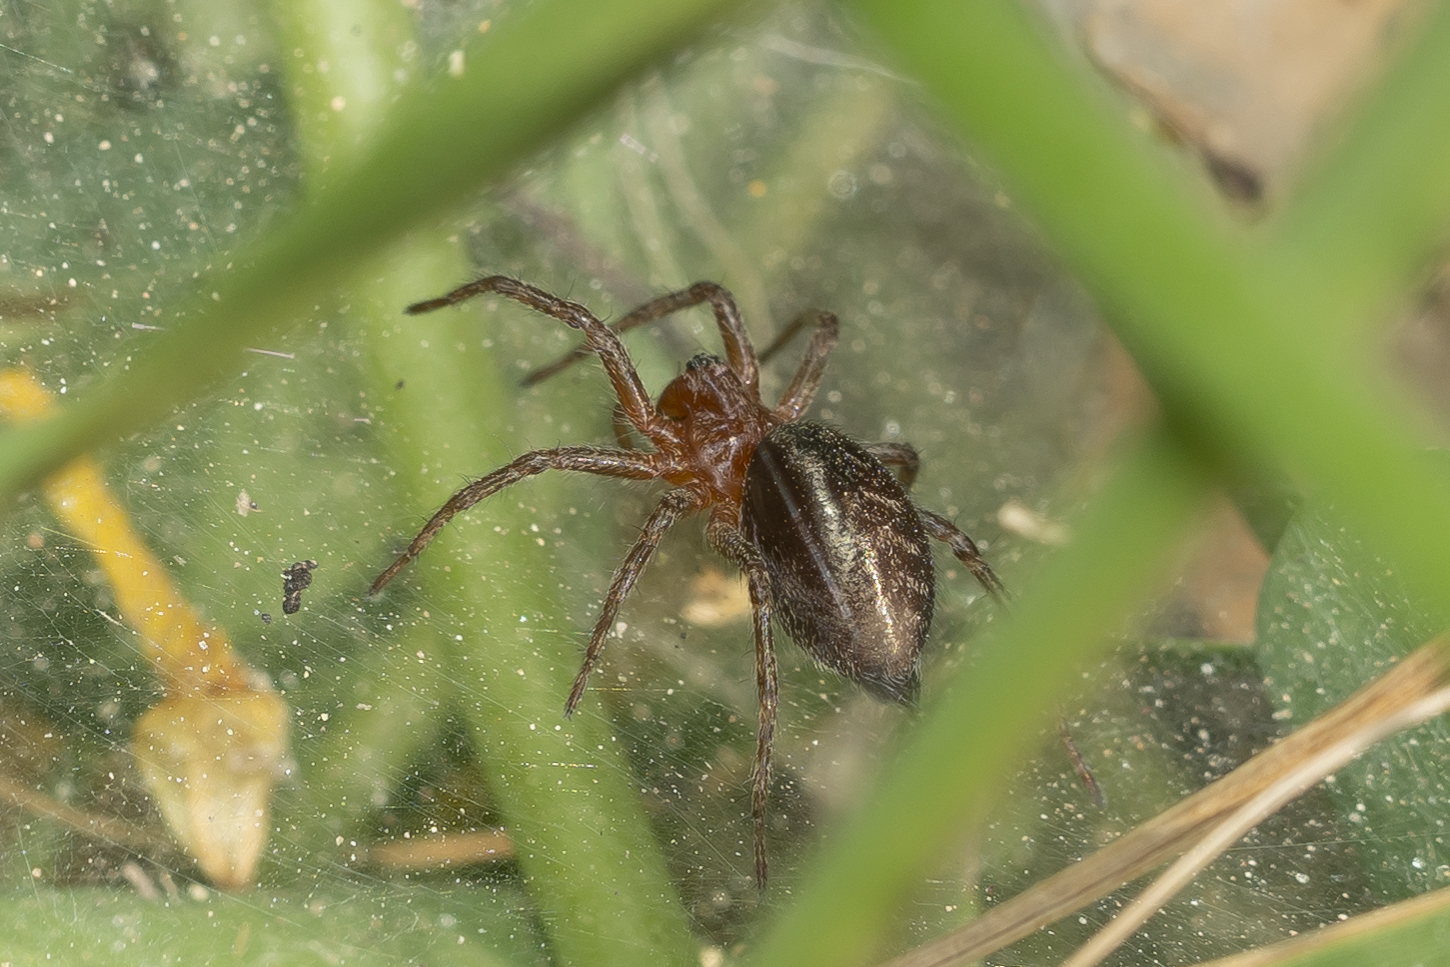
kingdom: Animalia
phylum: Arthropoda
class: Arachnida
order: Araneae
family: Agelenidae
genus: Agelena
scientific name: Agelena labyrinthica
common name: Labyrinth spider
